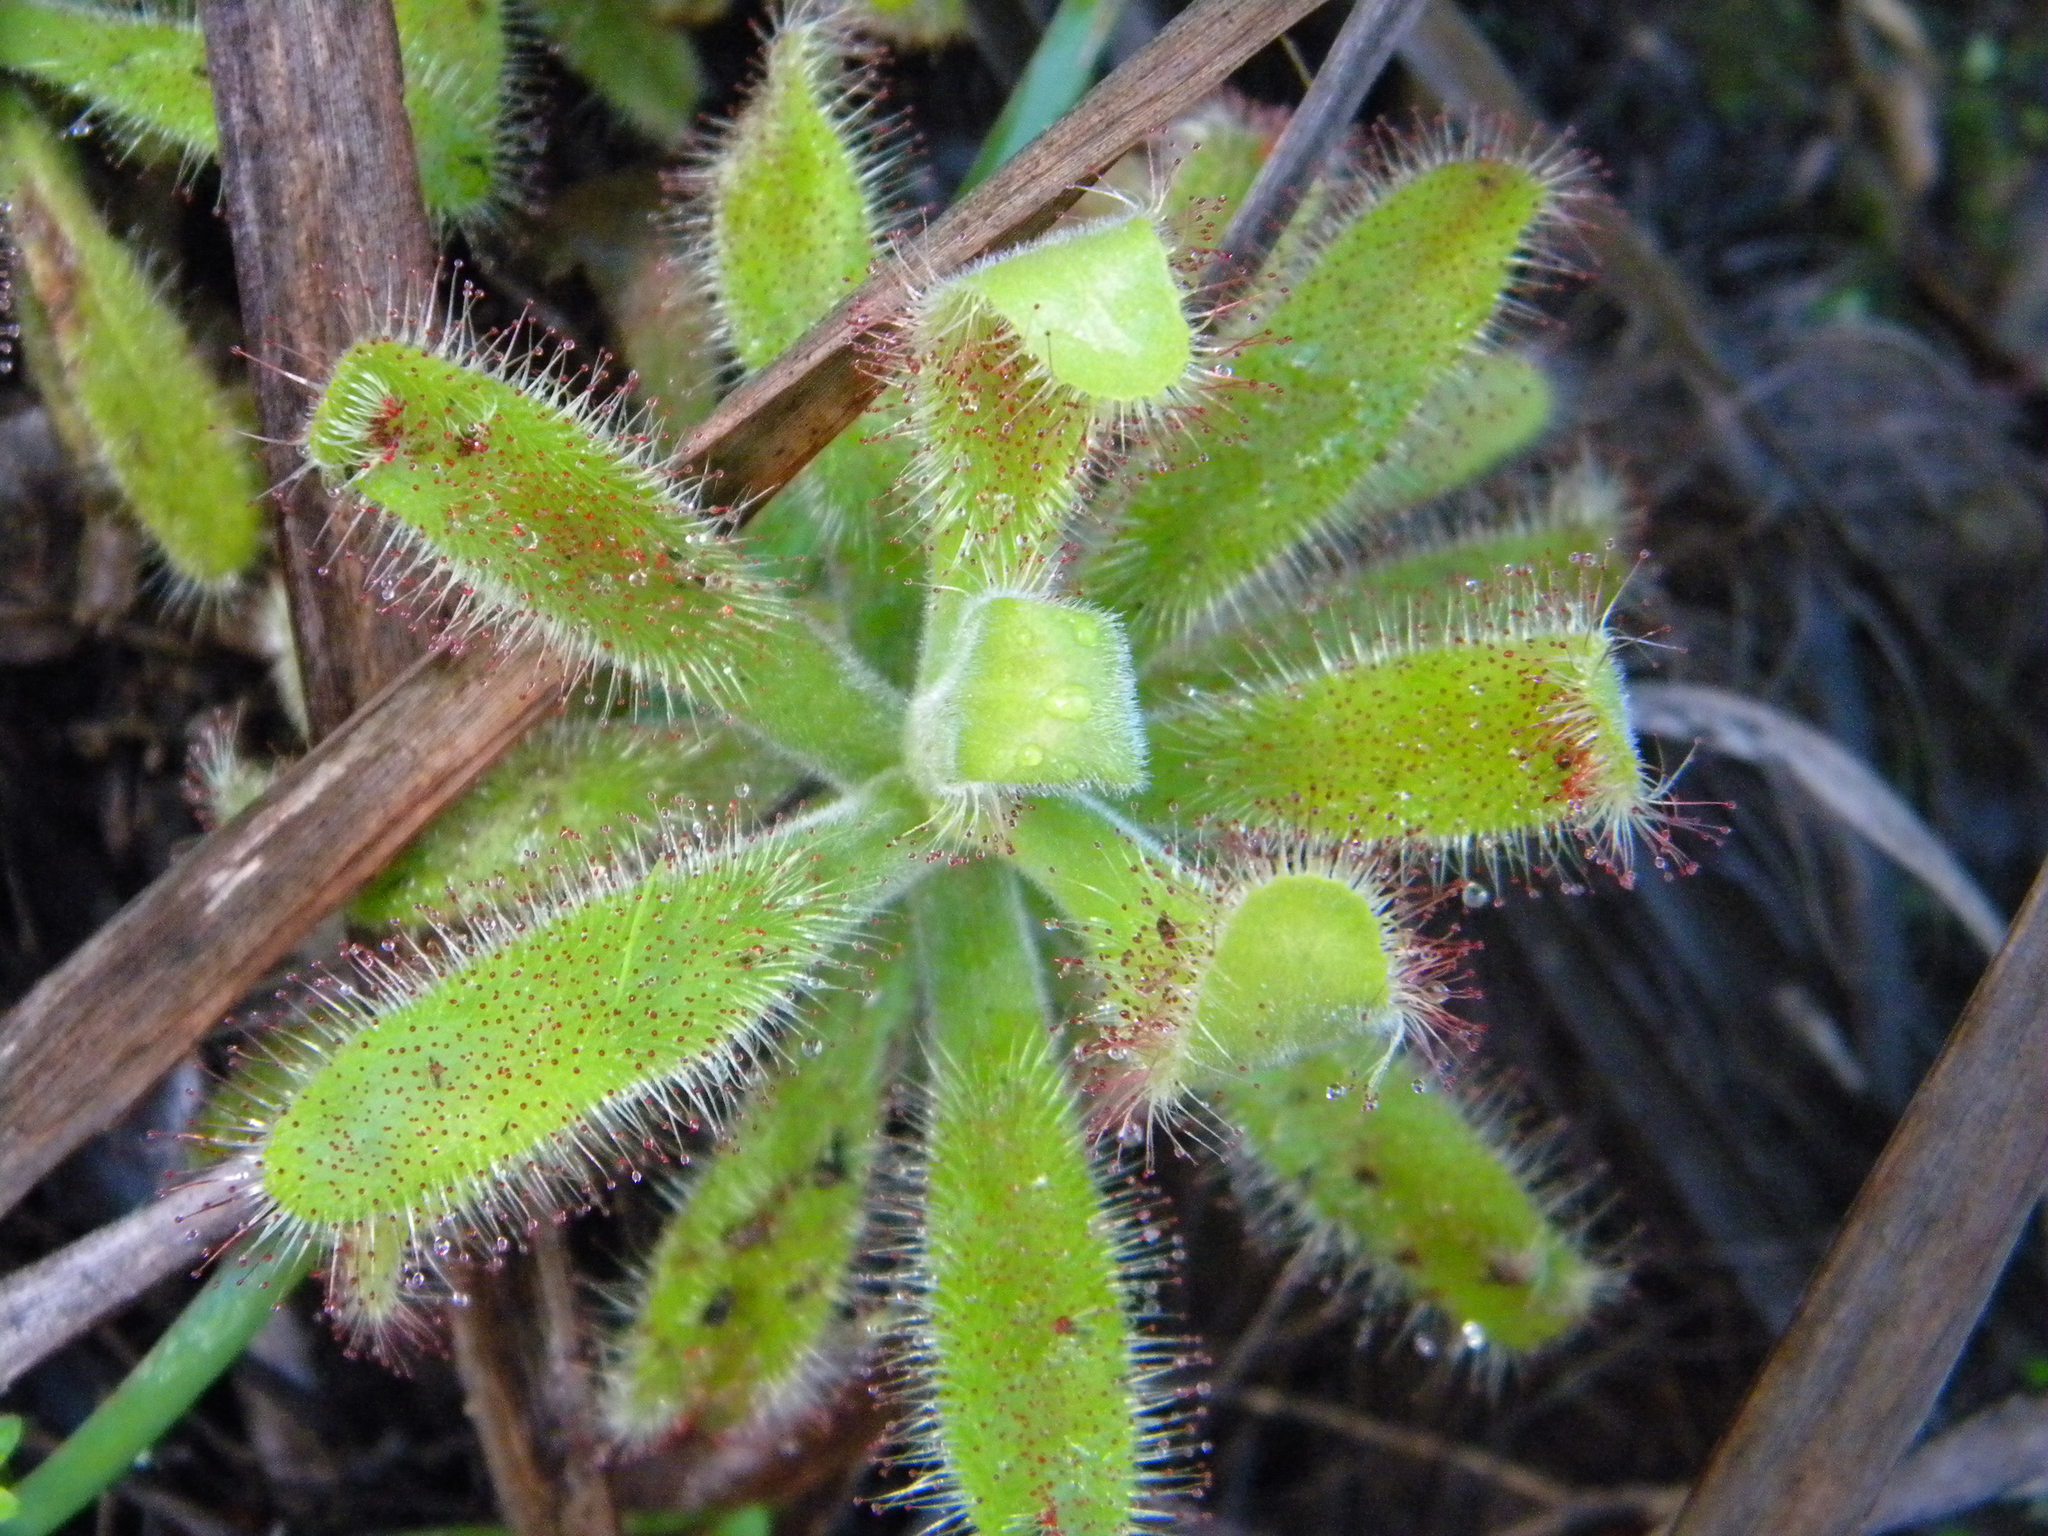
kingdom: Plantae
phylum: Tracheophyta
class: Magnoliopsida
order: Caryophyllales
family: Droseraceae
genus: Drosera
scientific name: Drosera hilaris
